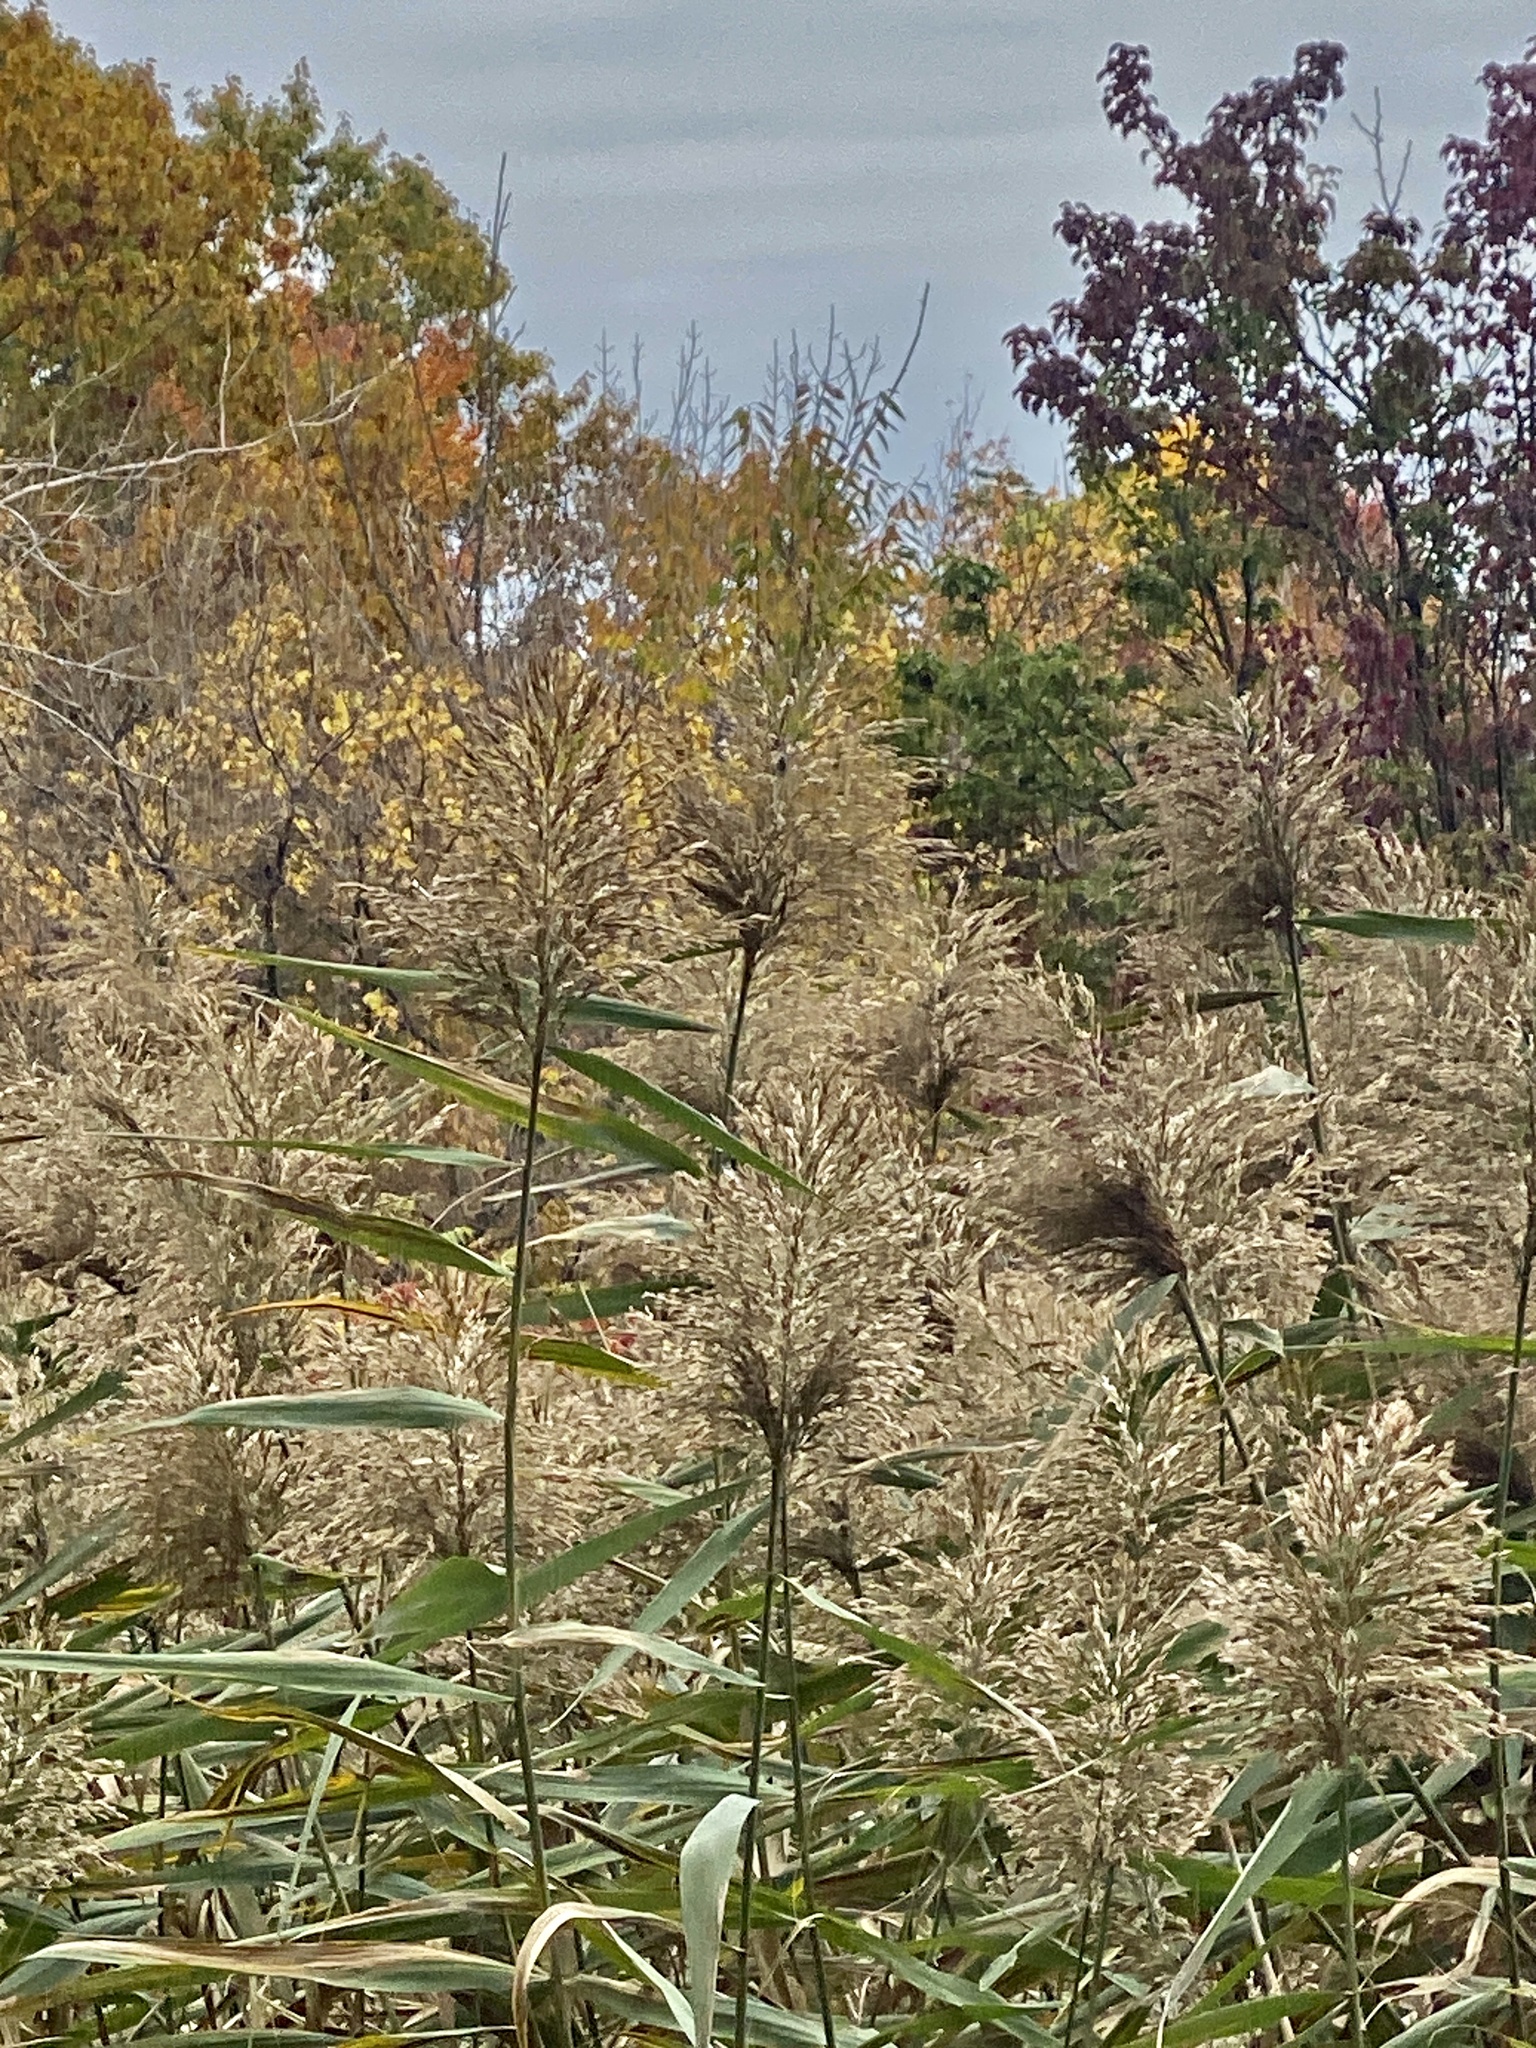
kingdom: Plantae
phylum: Tracheophyta
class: Liliopsida
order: Poales
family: Poaceae
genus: Phragmites
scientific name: Phragmites australis
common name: Common reed
